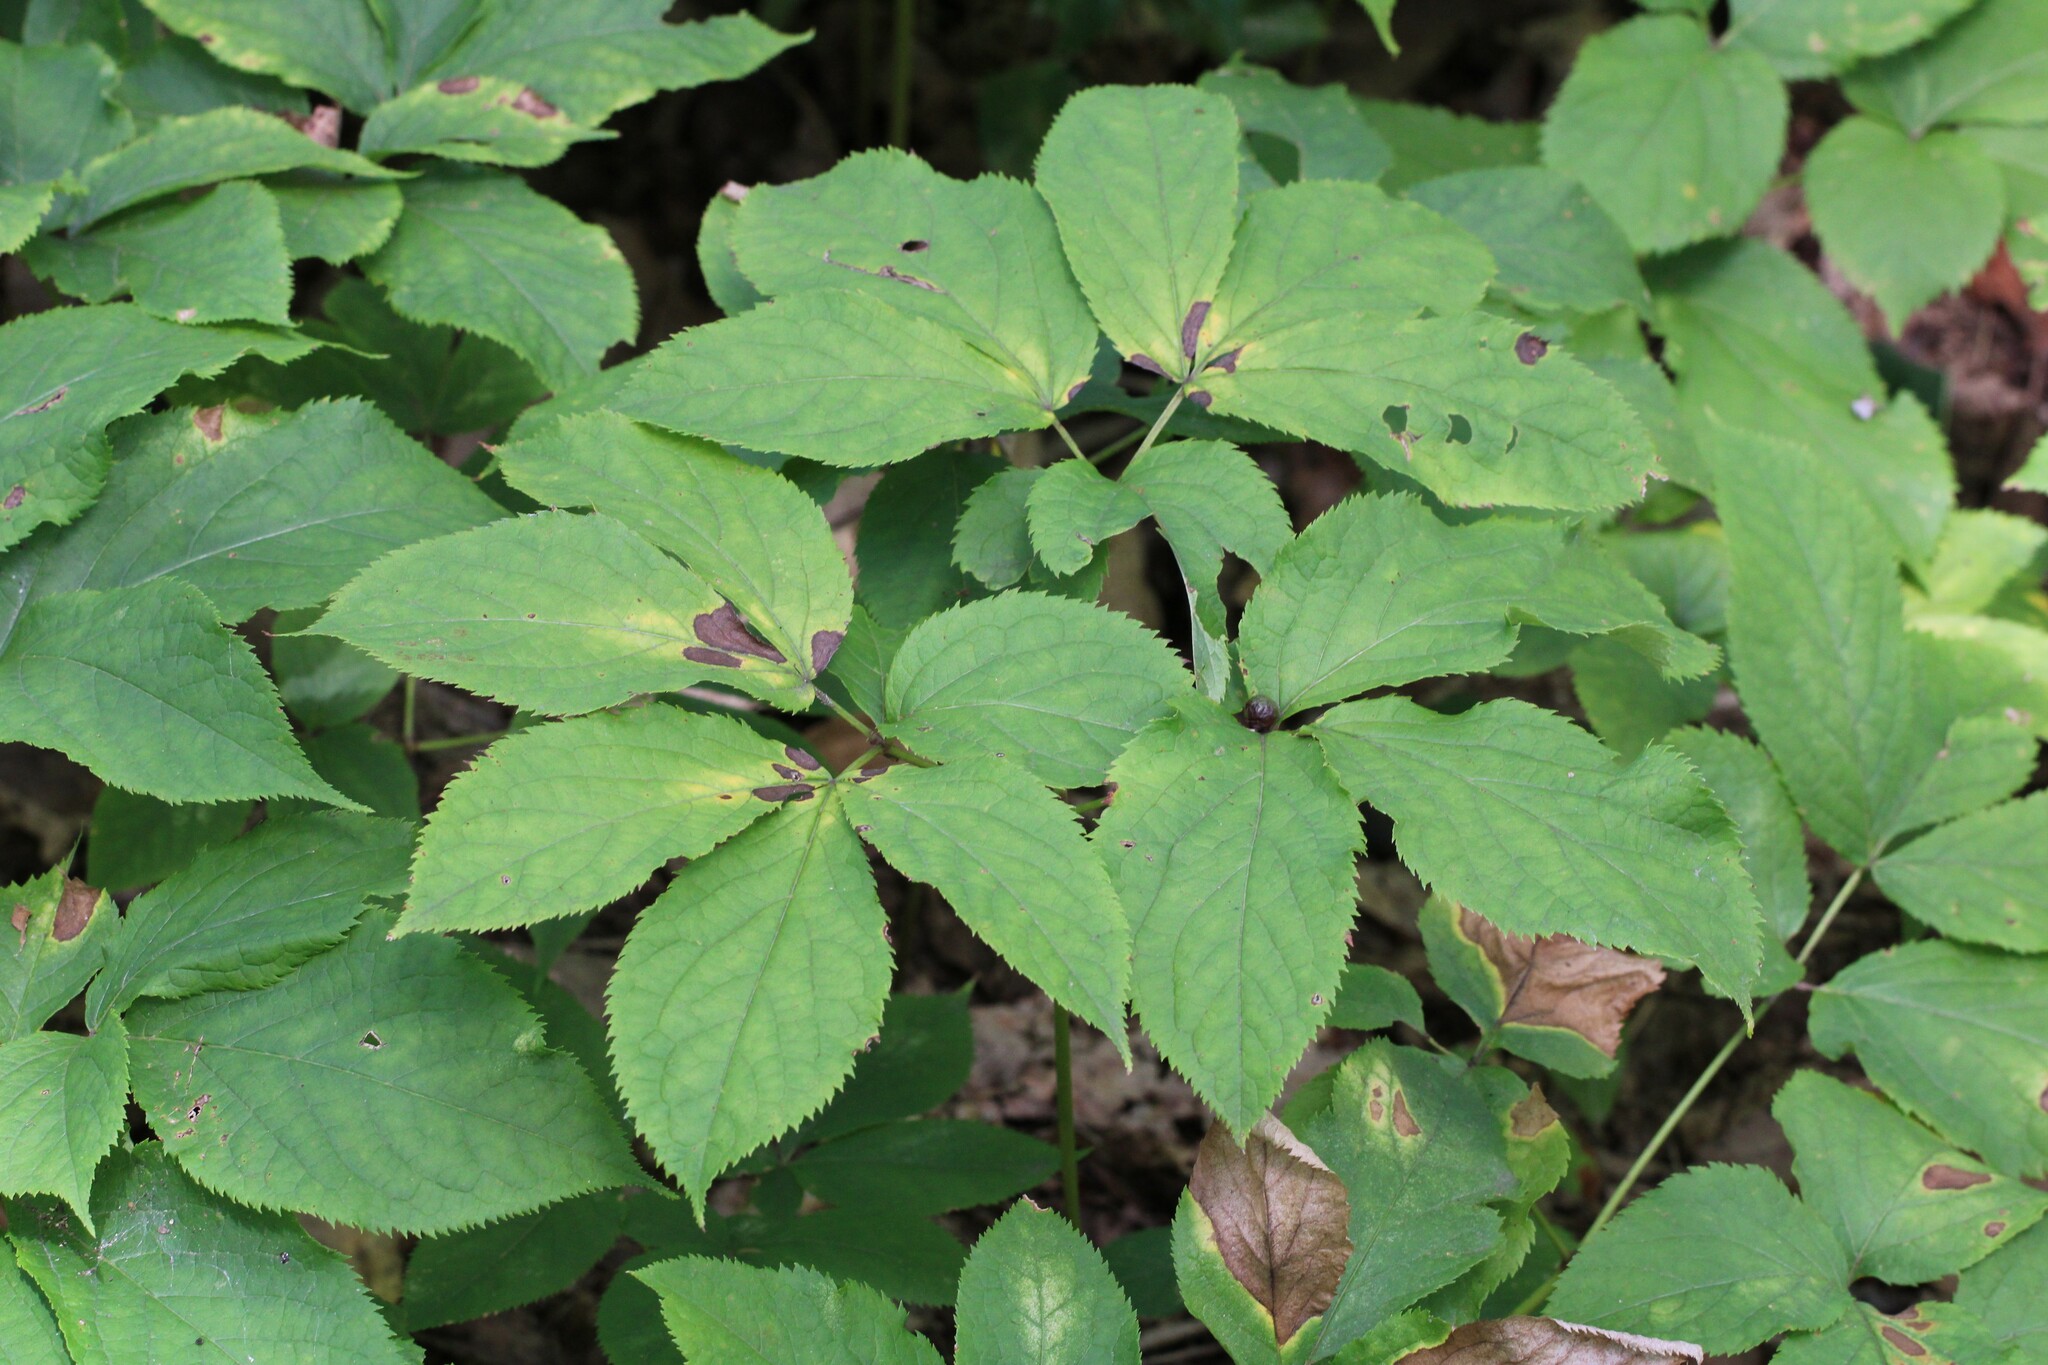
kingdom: Plantae
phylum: Tracheophyta
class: Magnoliopsida
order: Apiales
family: Araliaceae
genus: Aralia
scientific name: Aralia nudicaulis
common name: Wild sarsaparilla
